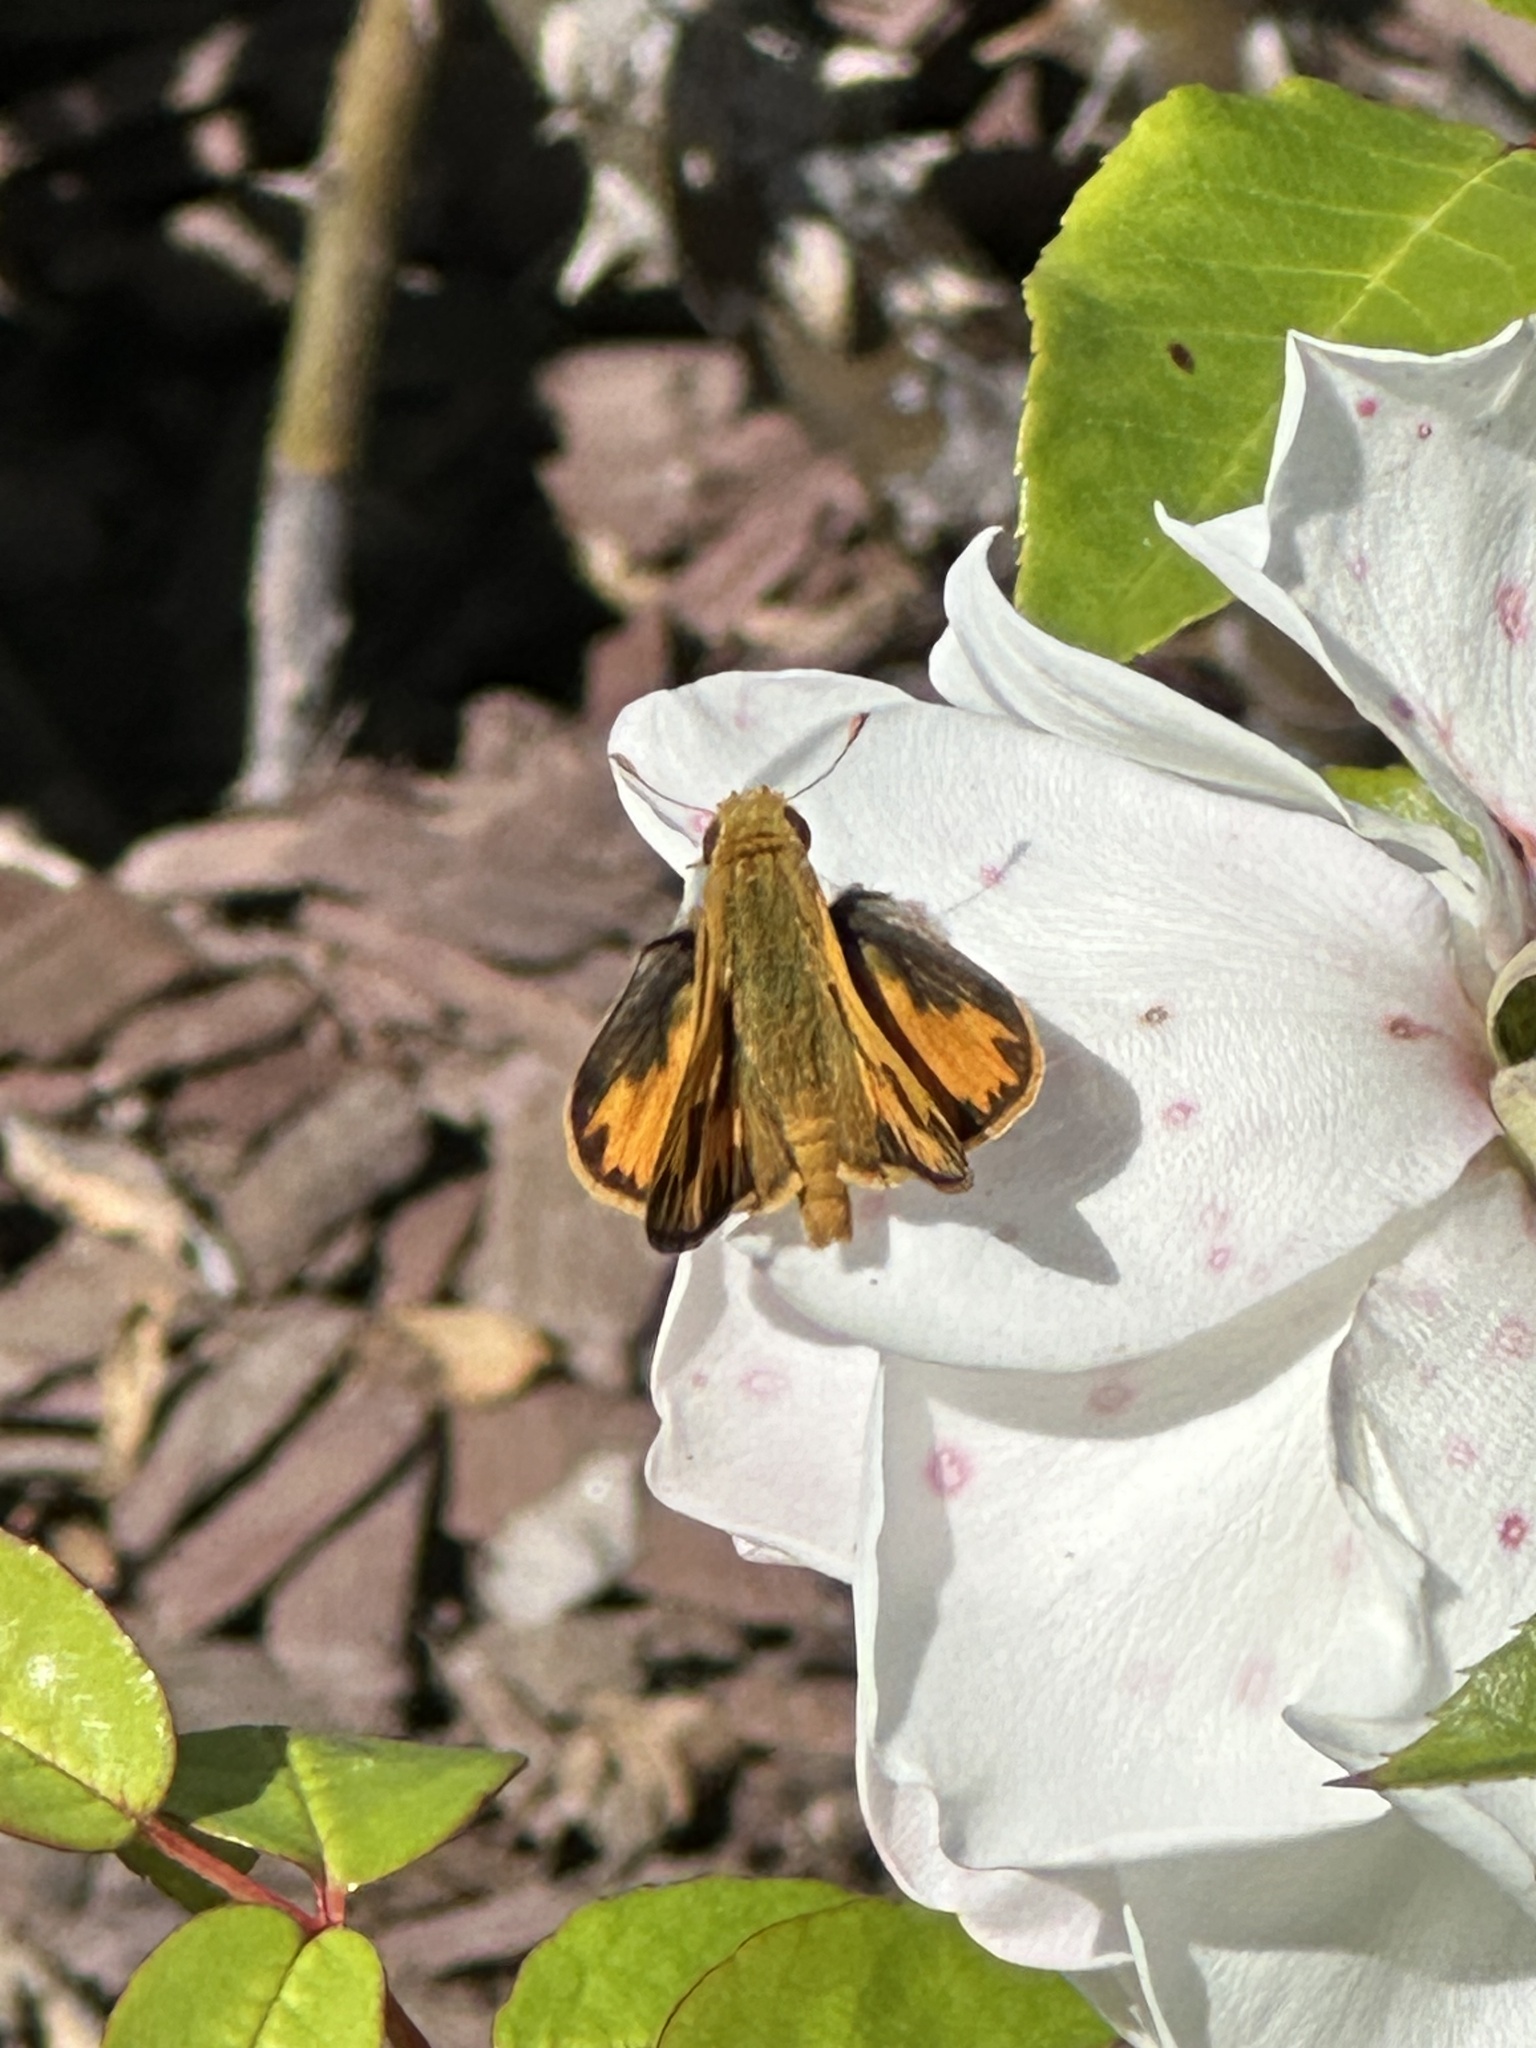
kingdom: Animalia
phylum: Arthropoda
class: Insecta
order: Lepidoptera
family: Hesperiidae
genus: Hylephila
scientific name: Hylephila phyleus
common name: Fiery skipper
